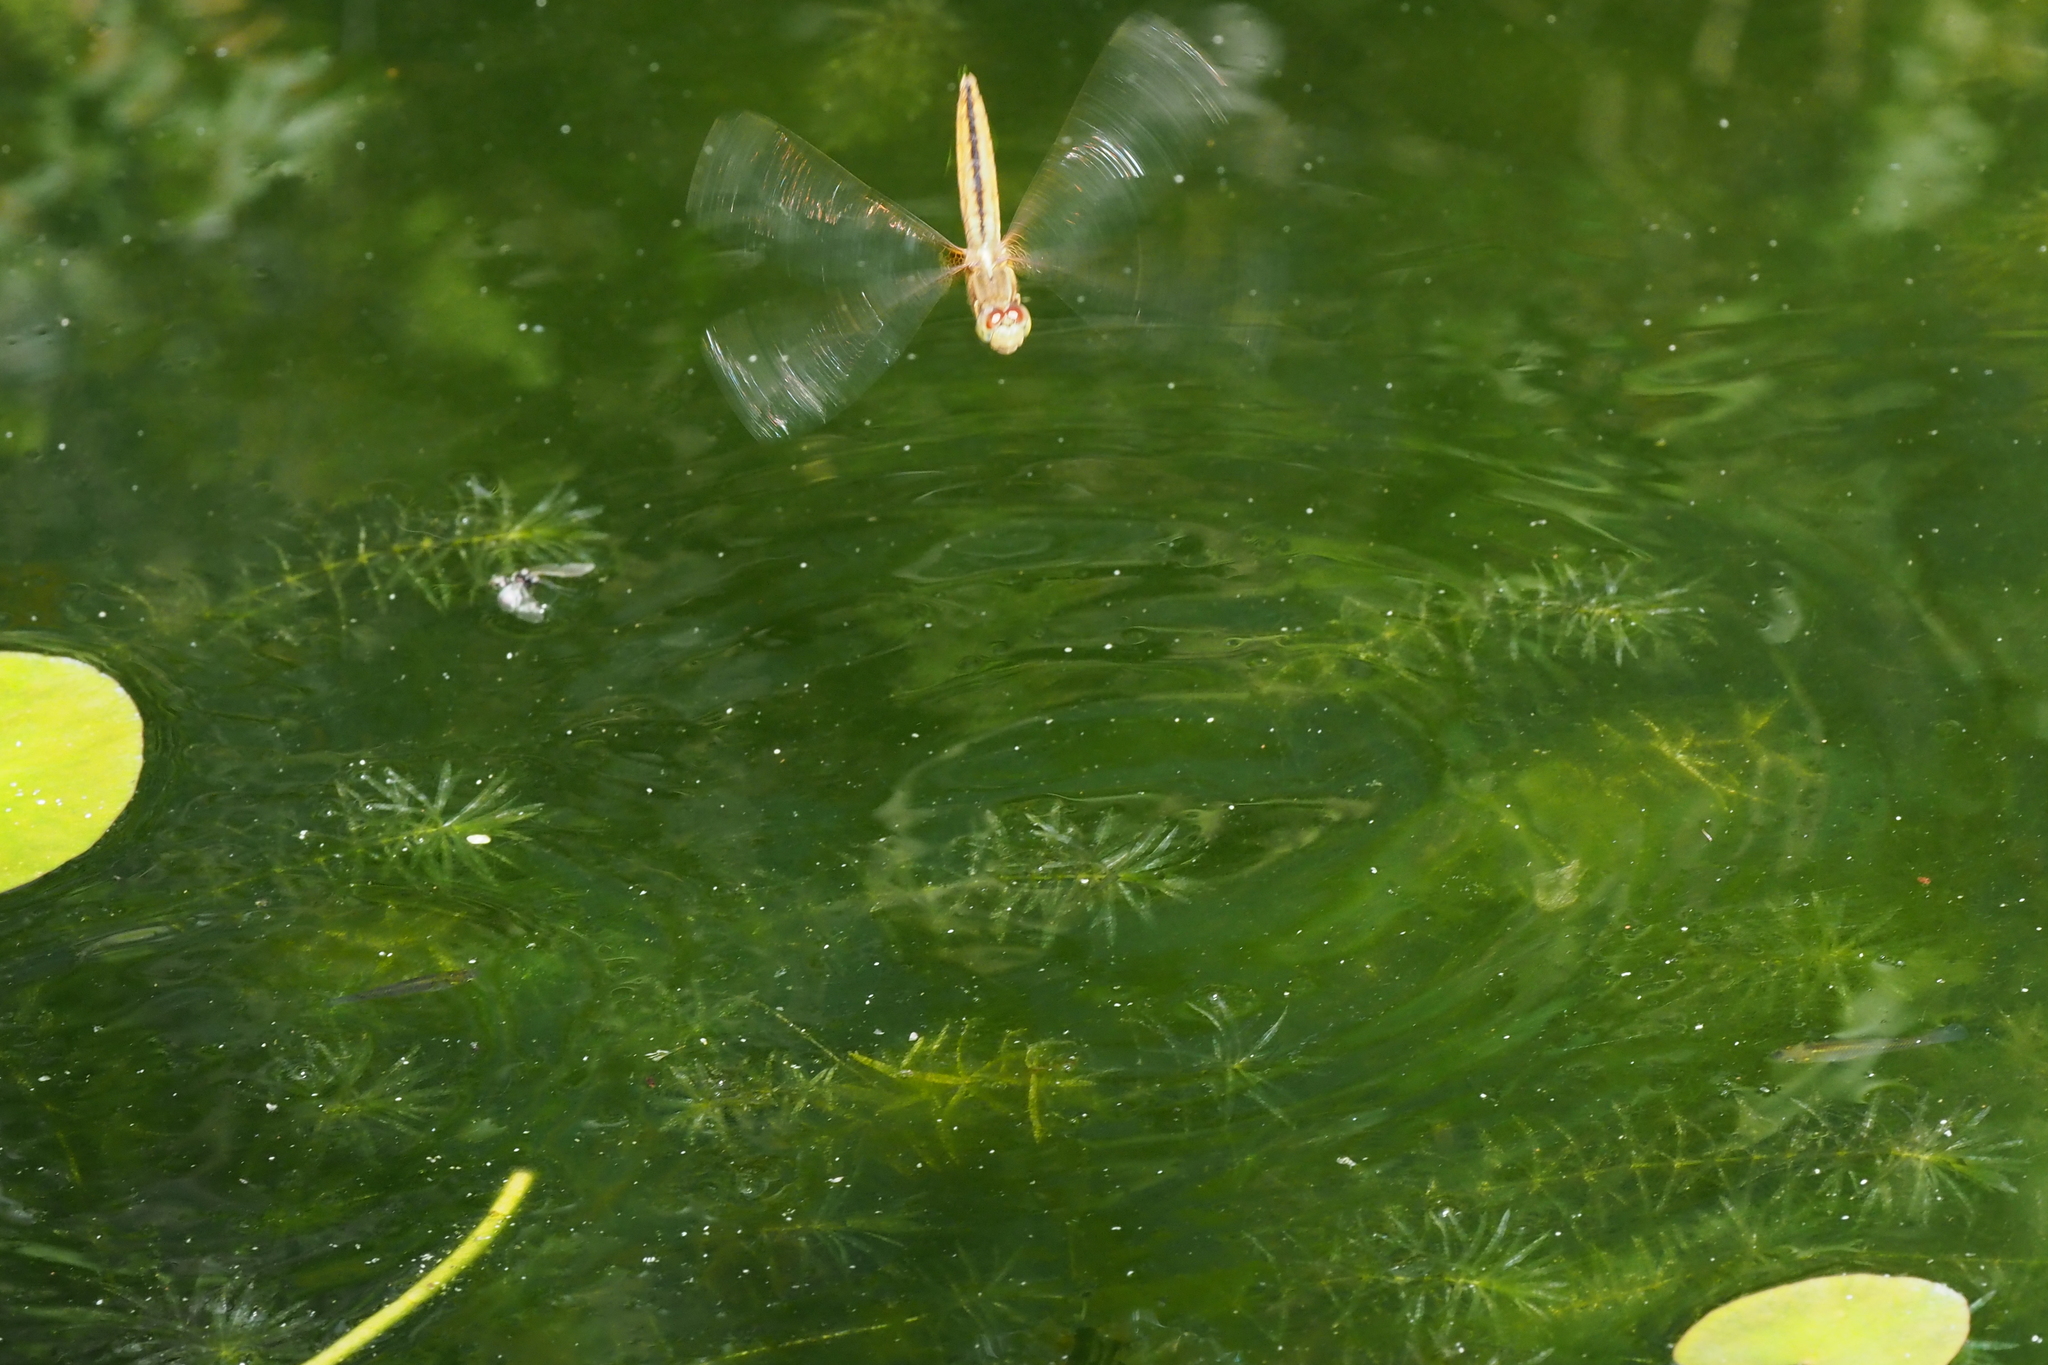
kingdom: Animalia
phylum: Arthropoda
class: Insecta
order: Odonata
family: Libellulidae
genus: Crocothemis
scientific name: Crocothemis servilia
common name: Scarlet skimmer
